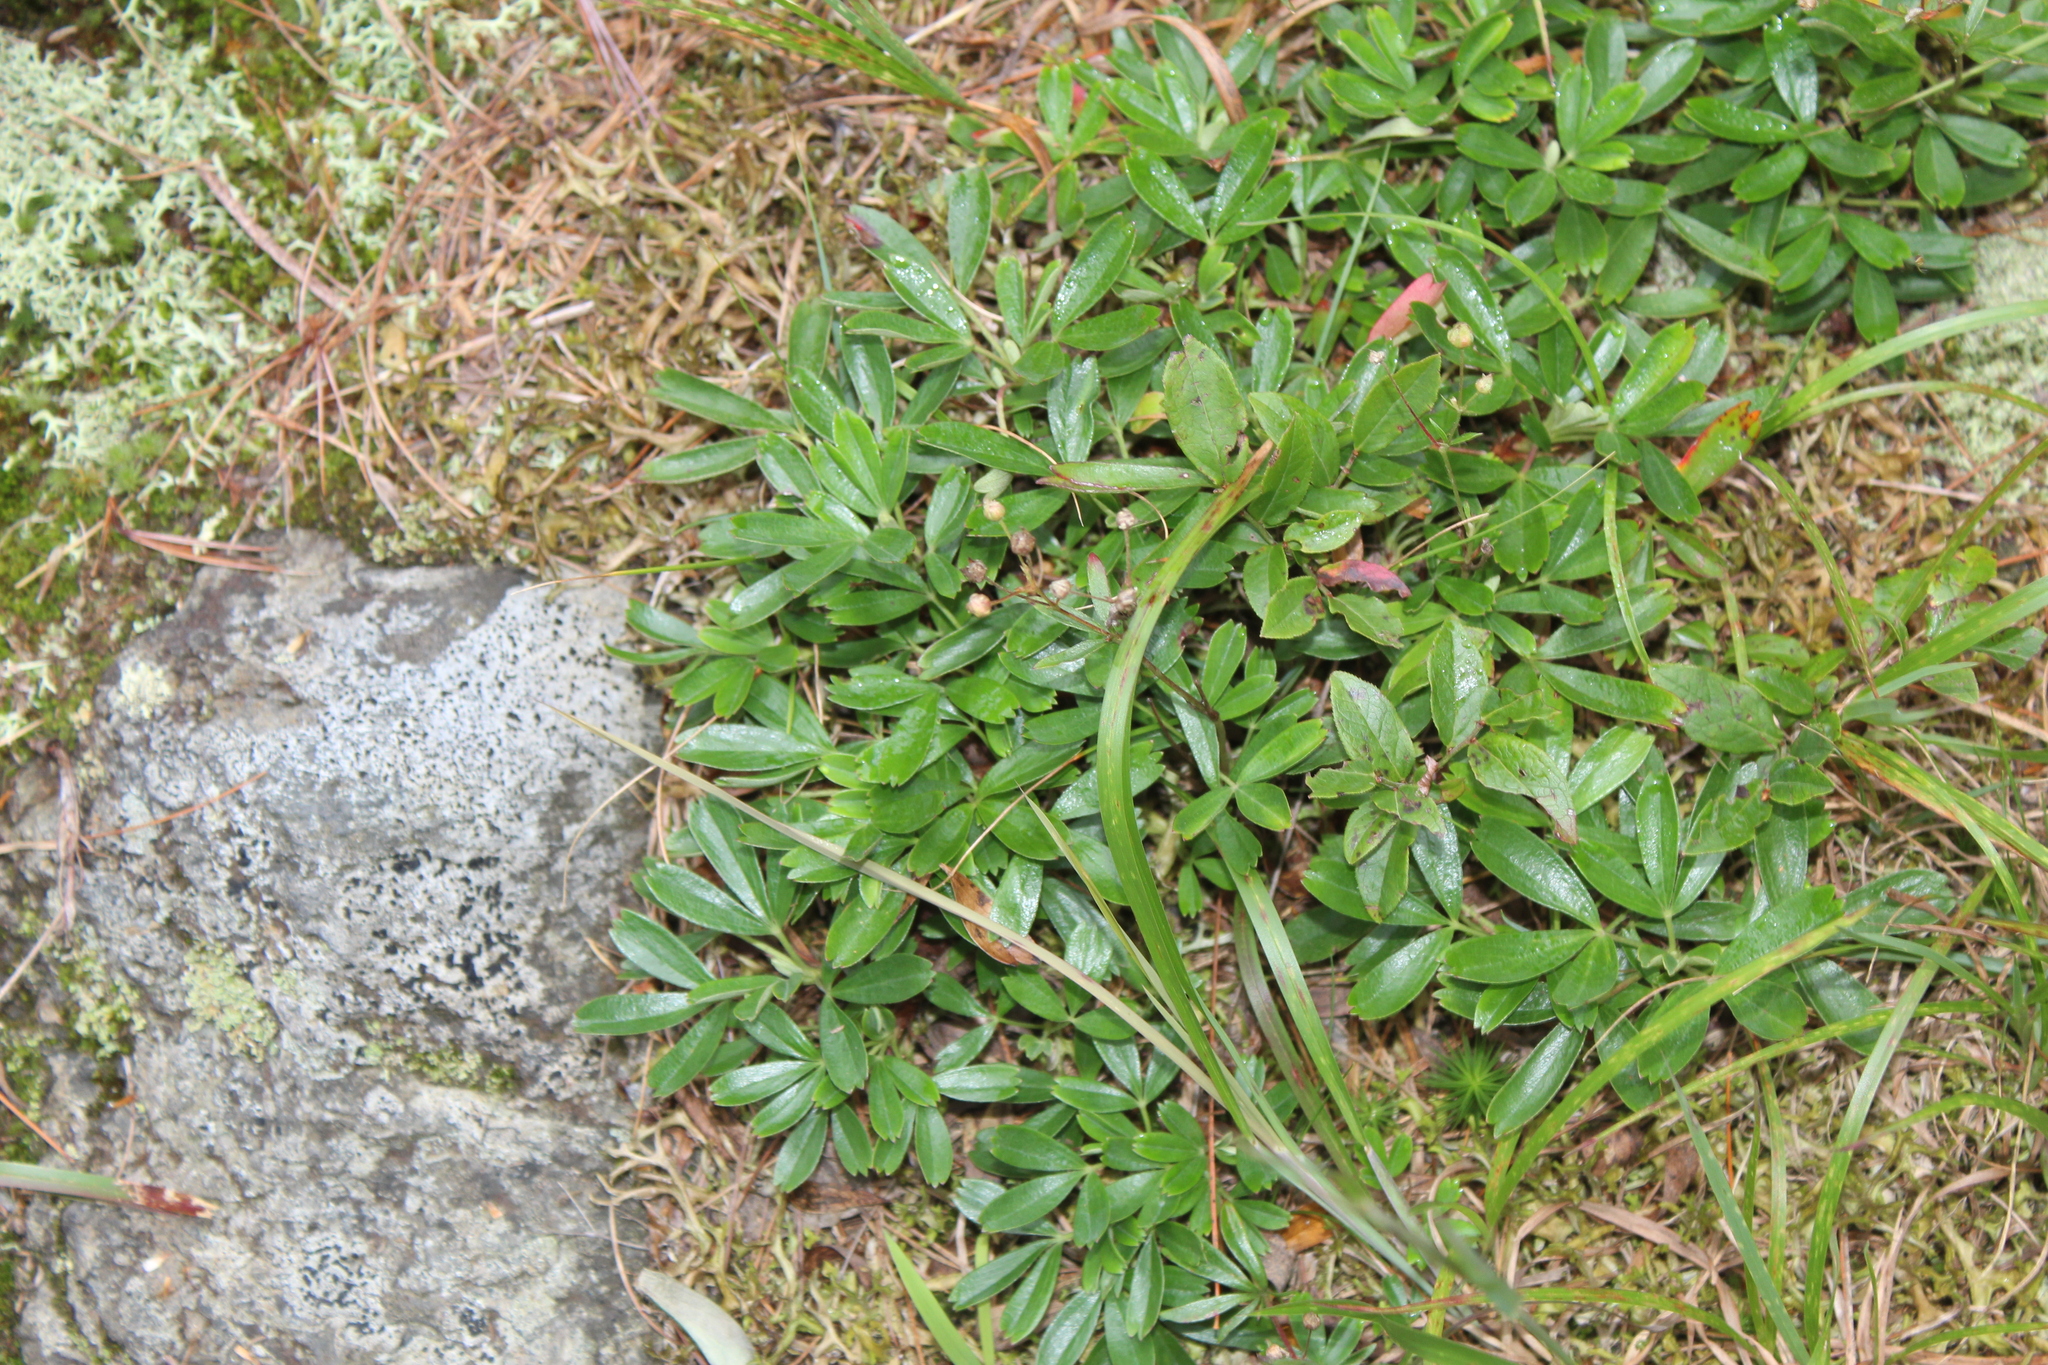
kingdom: Plantae
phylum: Tracheophyta
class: Magnoliopsida
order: Rosales
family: Rosaceae
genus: Sibbaldia
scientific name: Sibbaldia tridentata
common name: Three-toothed cinquefoil
